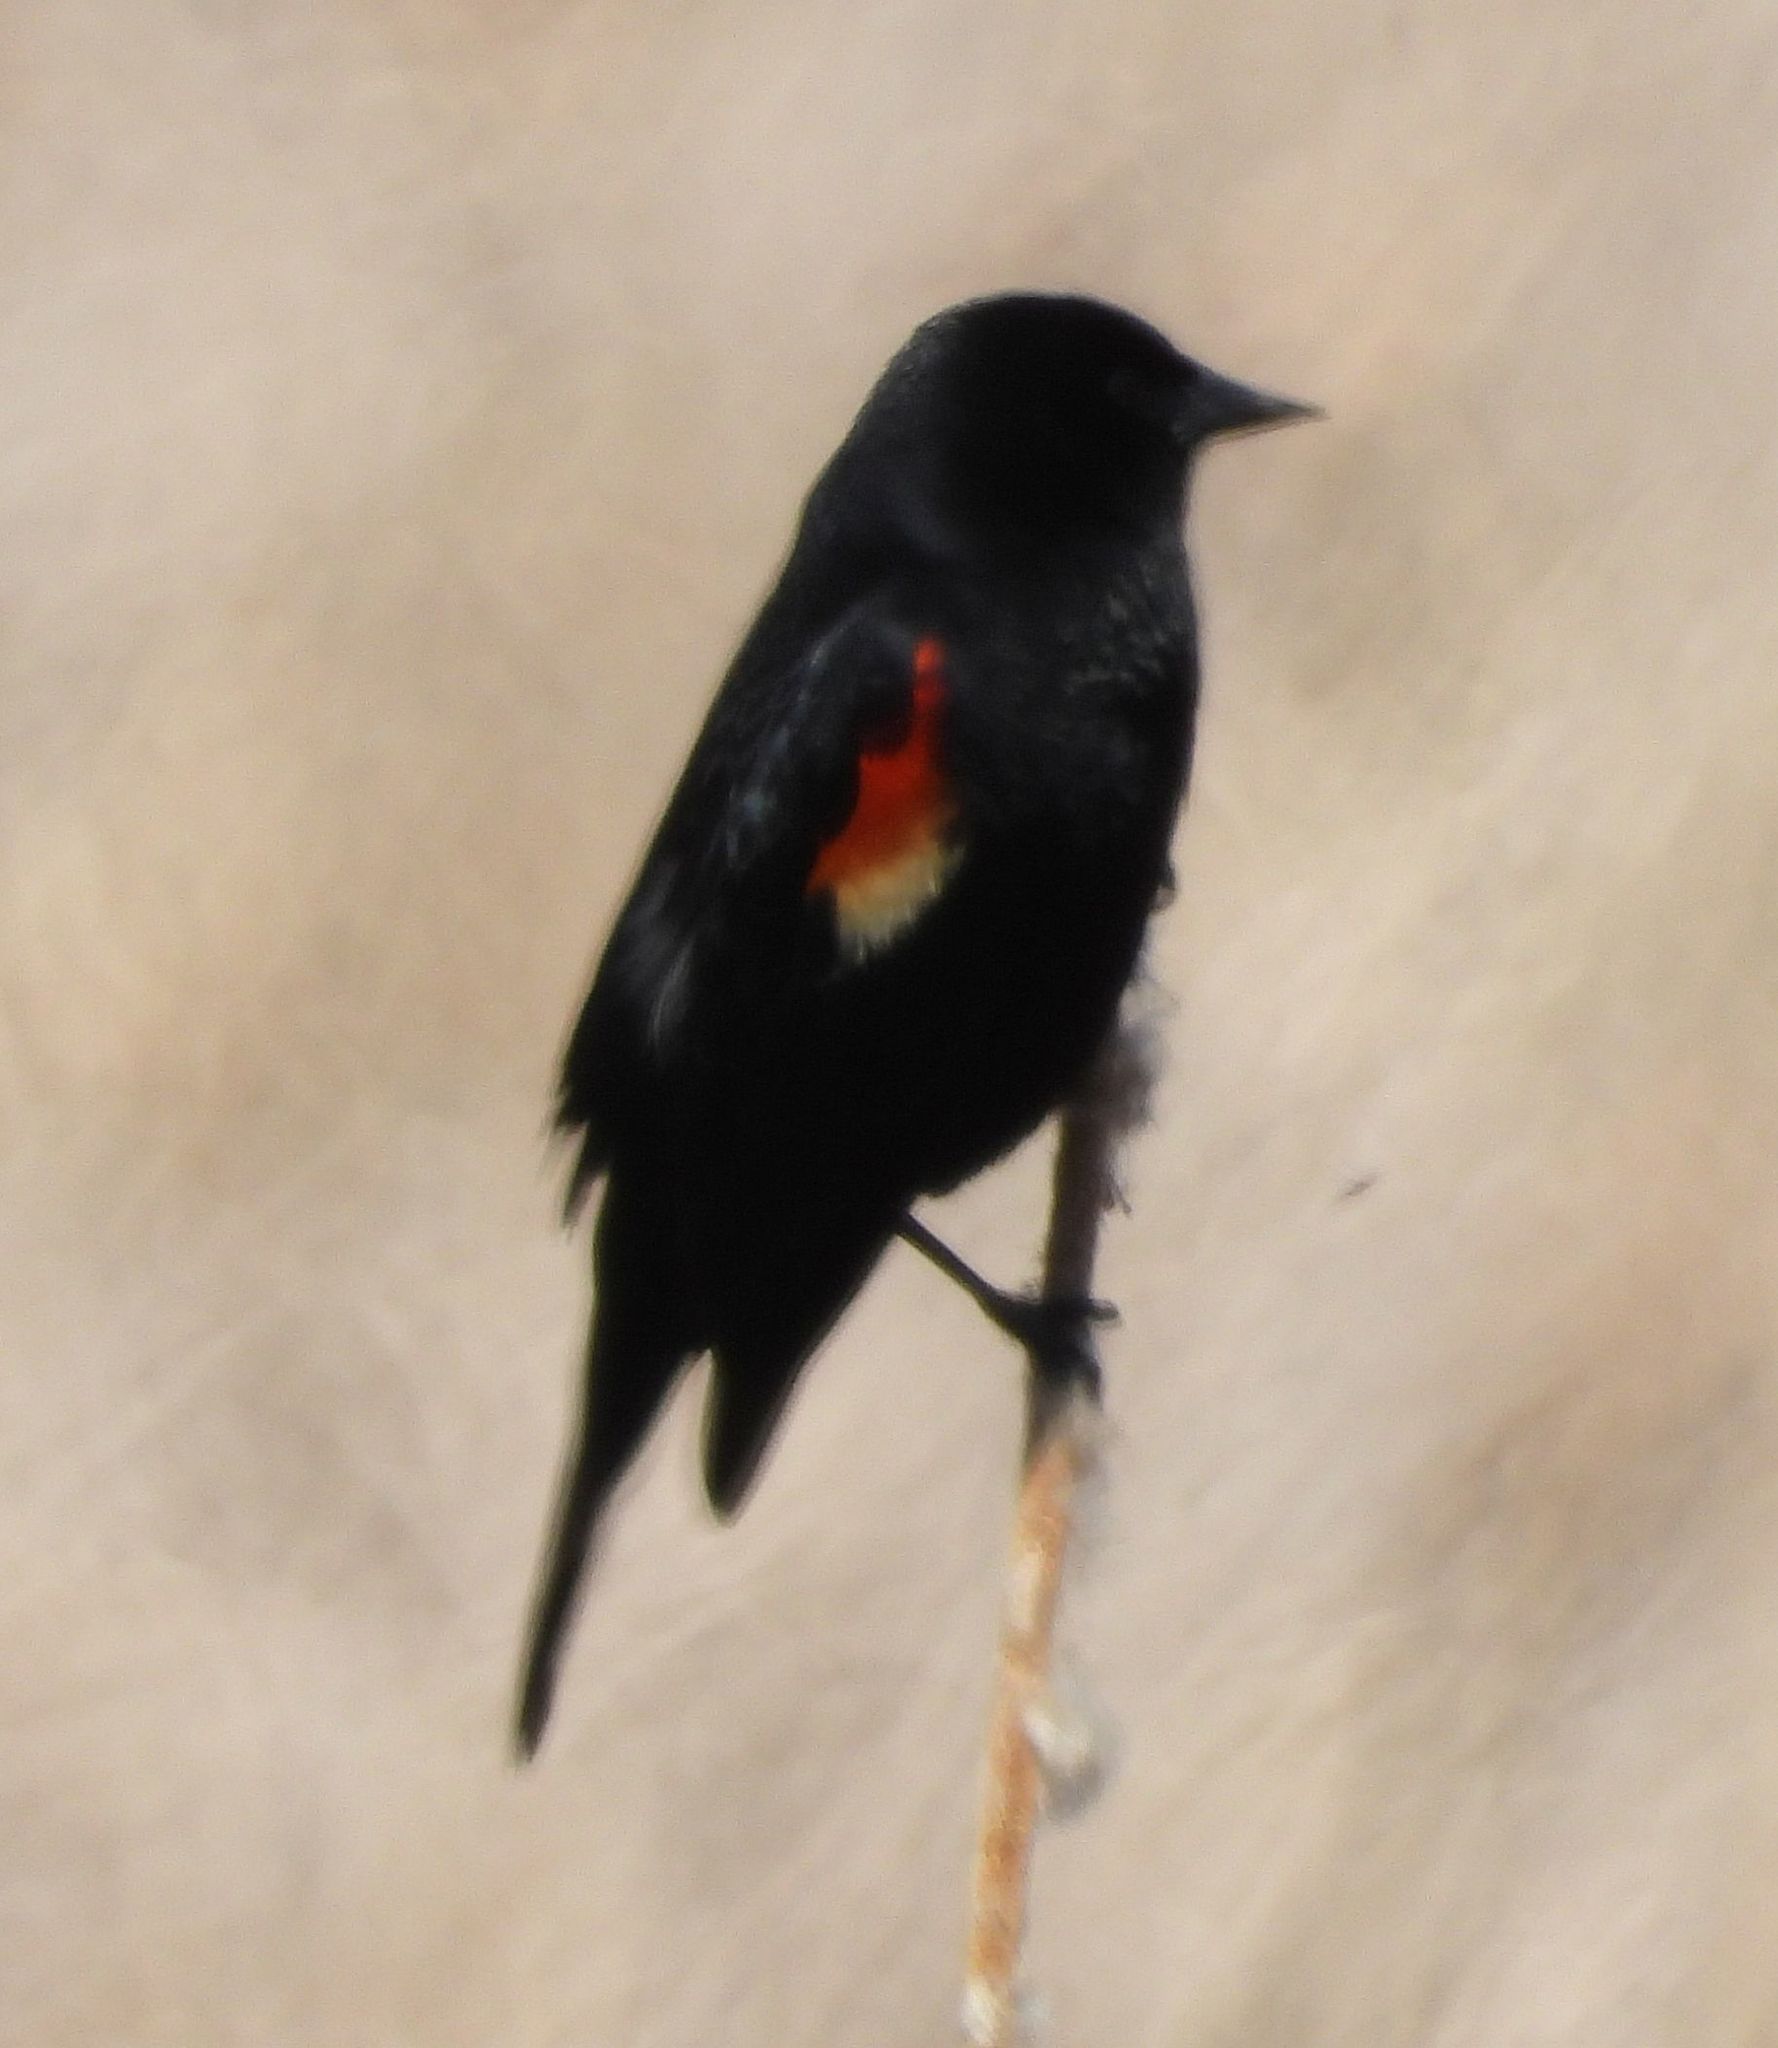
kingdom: Animalia
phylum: Chordata
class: Aves
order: Passeriformes
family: Icteridae
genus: Agelaius
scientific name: Agelaius phoeniceus
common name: Red-winged blackbird
